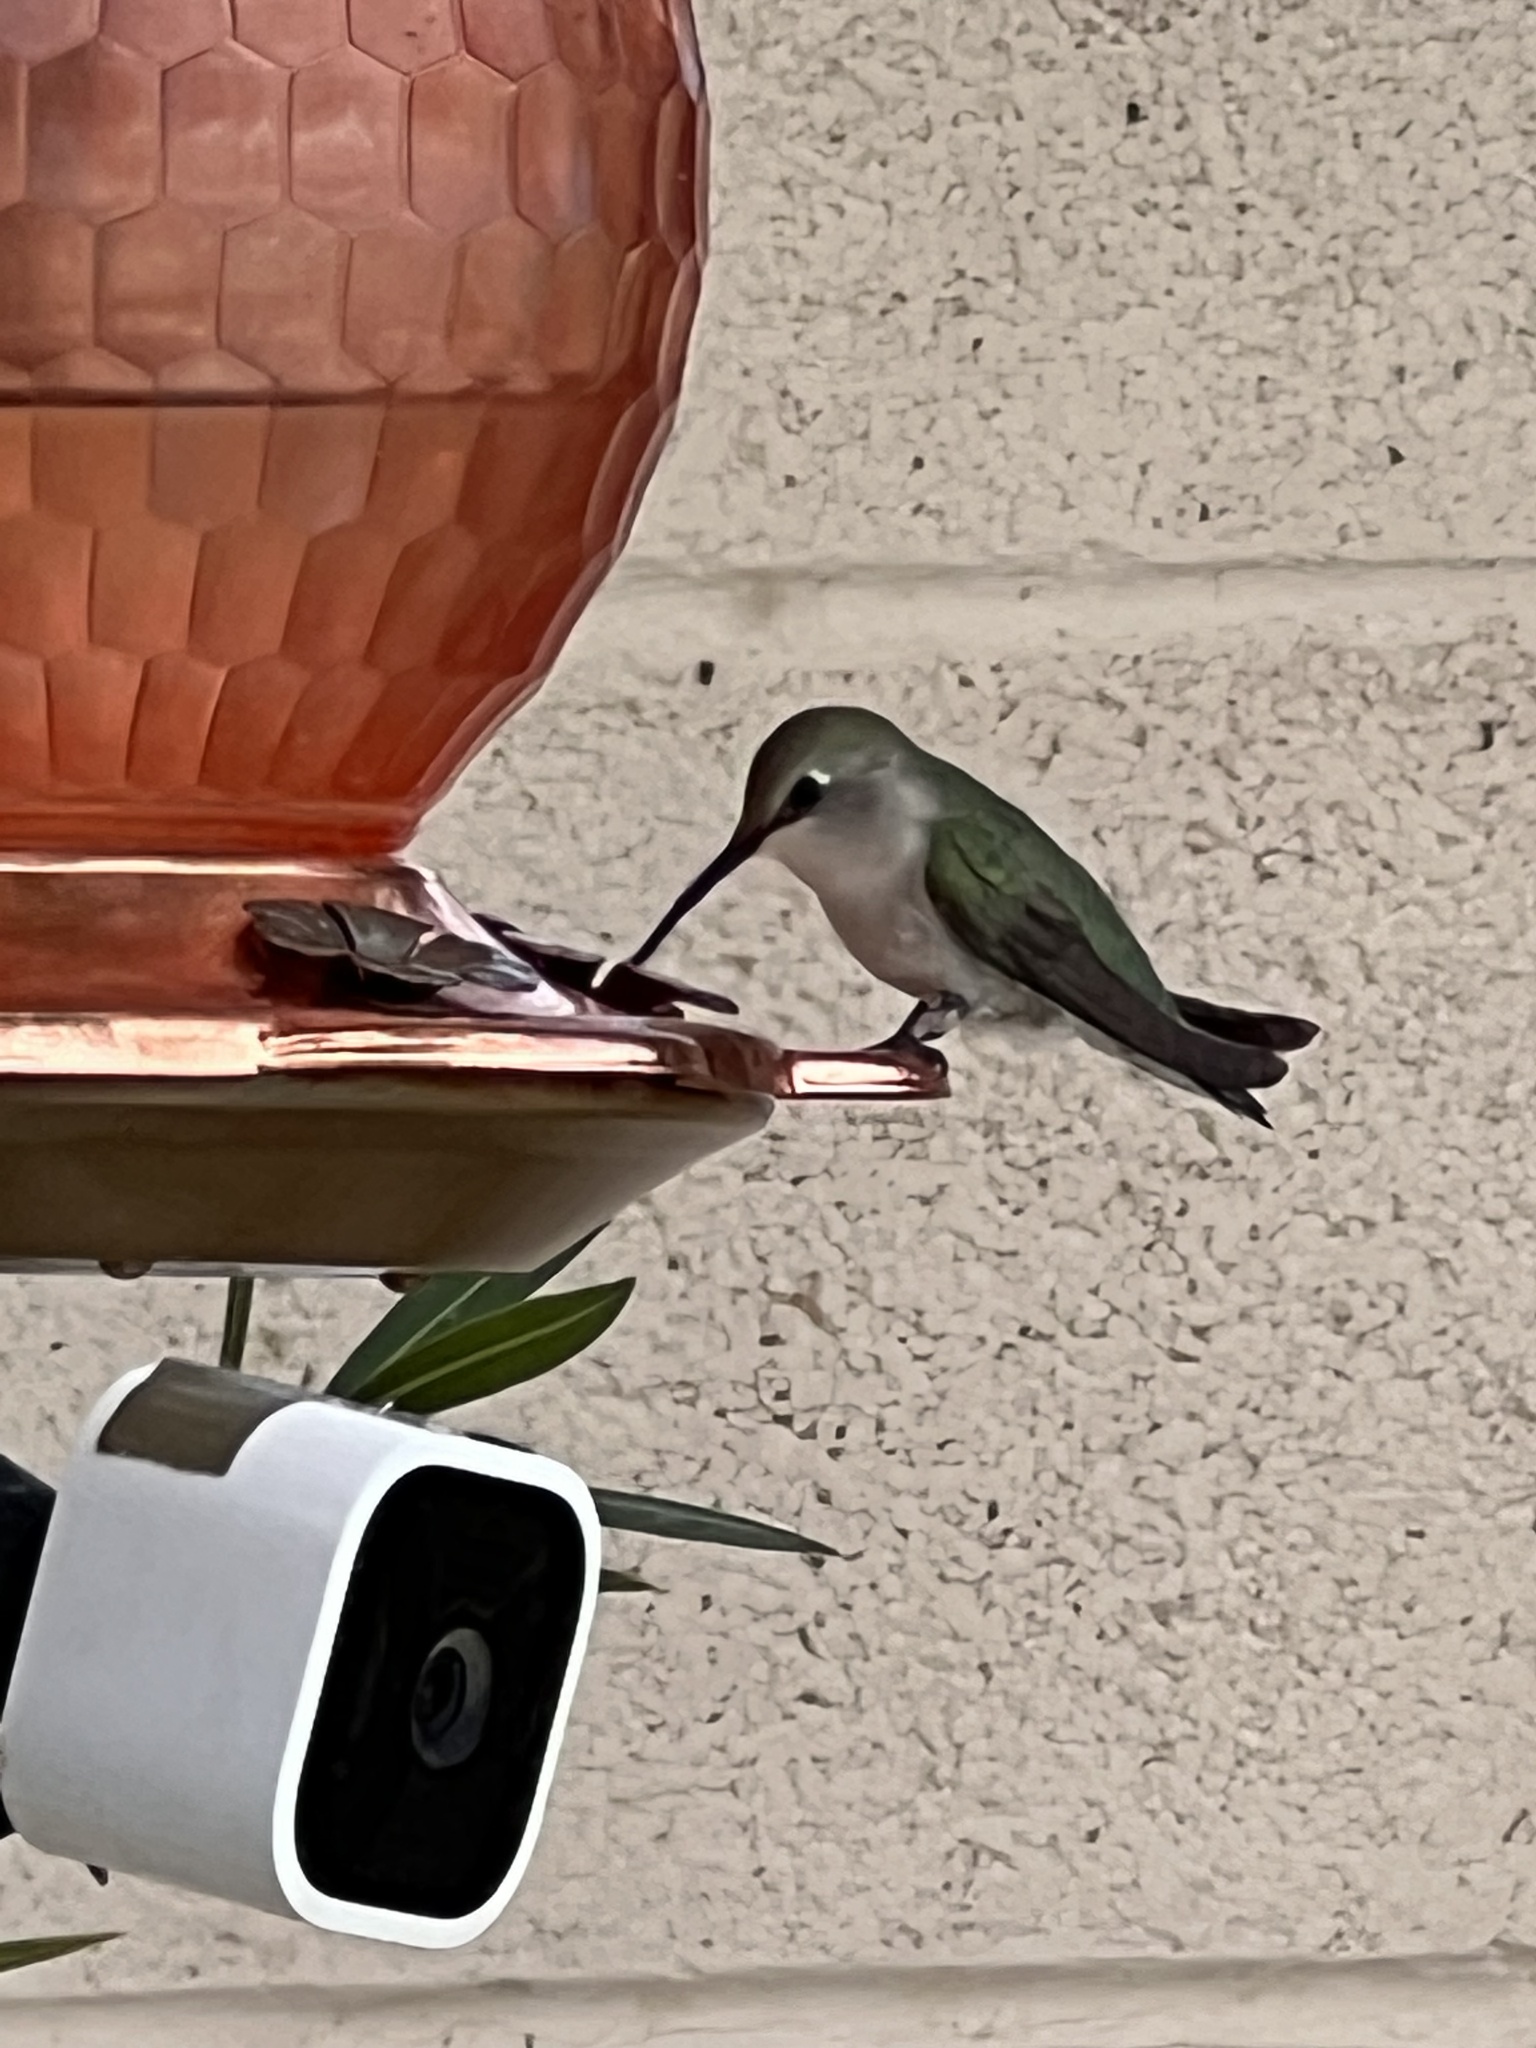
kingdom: Animalia
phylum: Chordata
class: Aves
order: Apodiformes
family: Trochilidae
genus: Calypte
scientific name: Calypte costae
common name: Costa's hummingbird
